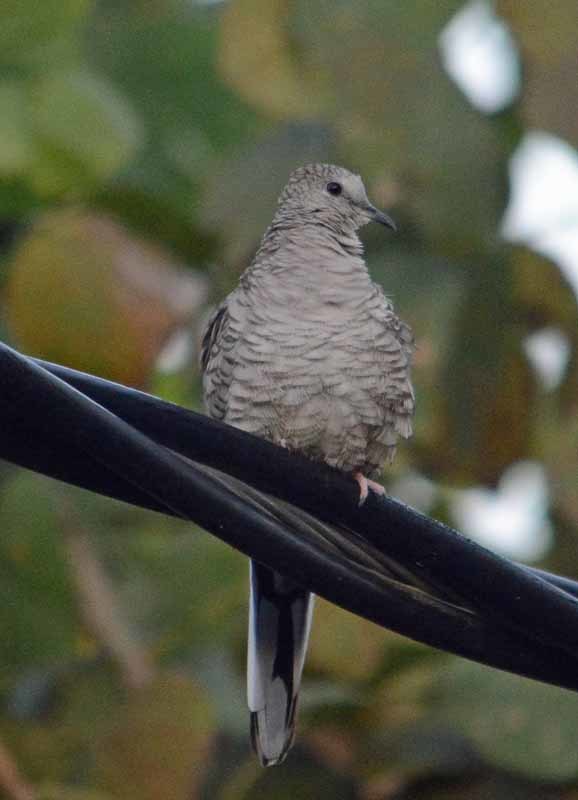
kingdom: Animalia
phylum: Chordata
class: Aves
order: Columbiformes
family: Columbidae
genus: Columbina
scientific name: Columbina inca
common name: Inca dove
